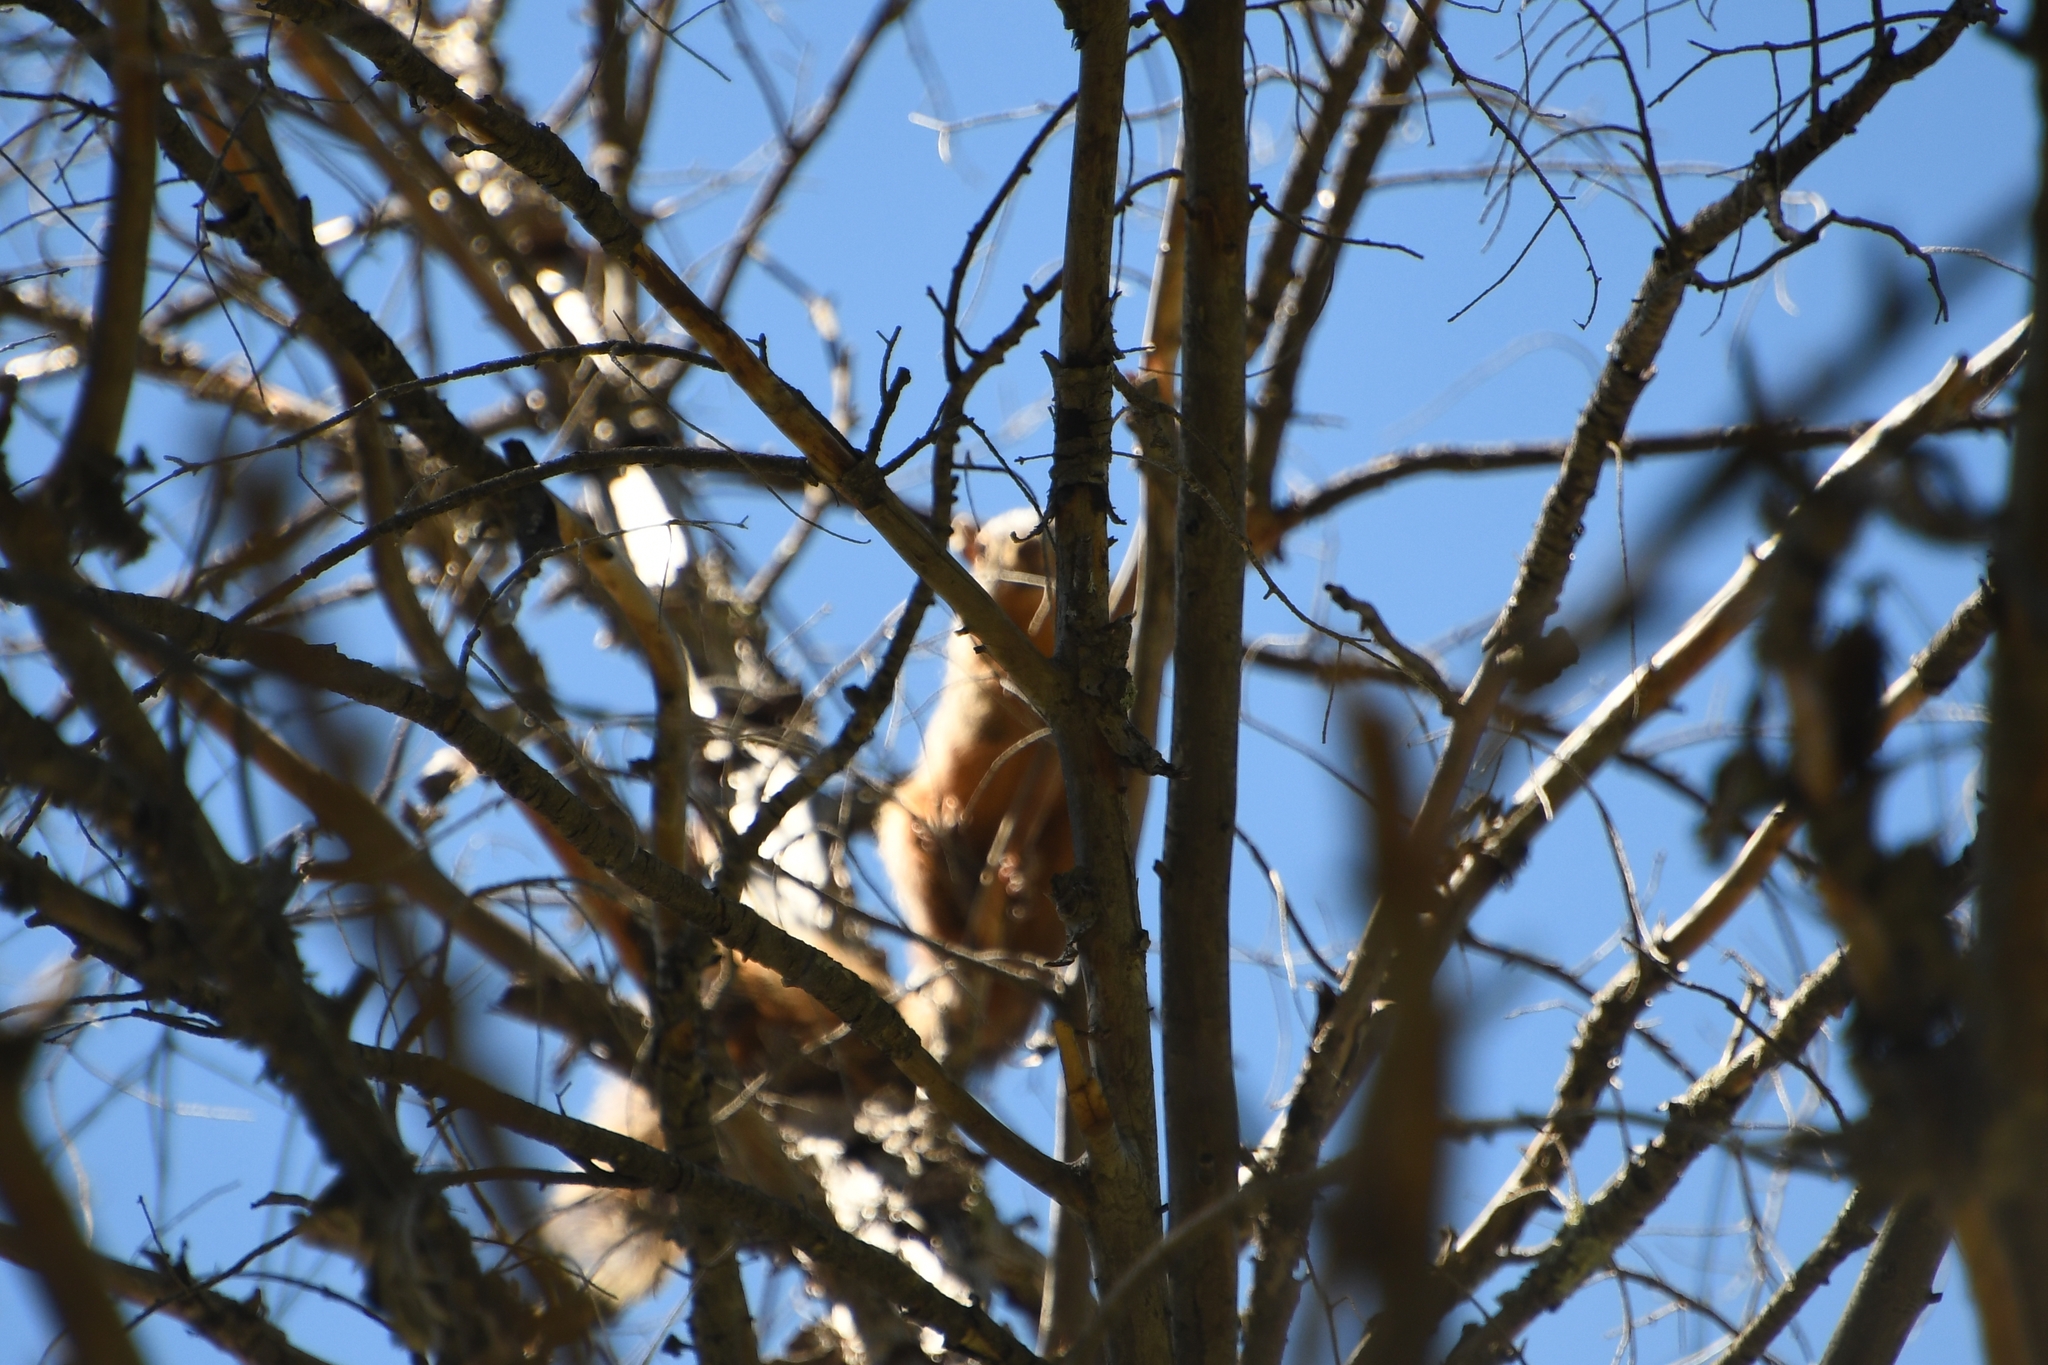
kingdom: Animalia
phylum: Chordata
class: Mammalia
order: Rodentia
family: Sciuridae
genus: Sciurus
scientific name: Sciurus nayaritensis
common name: Mexican fox squirrel
